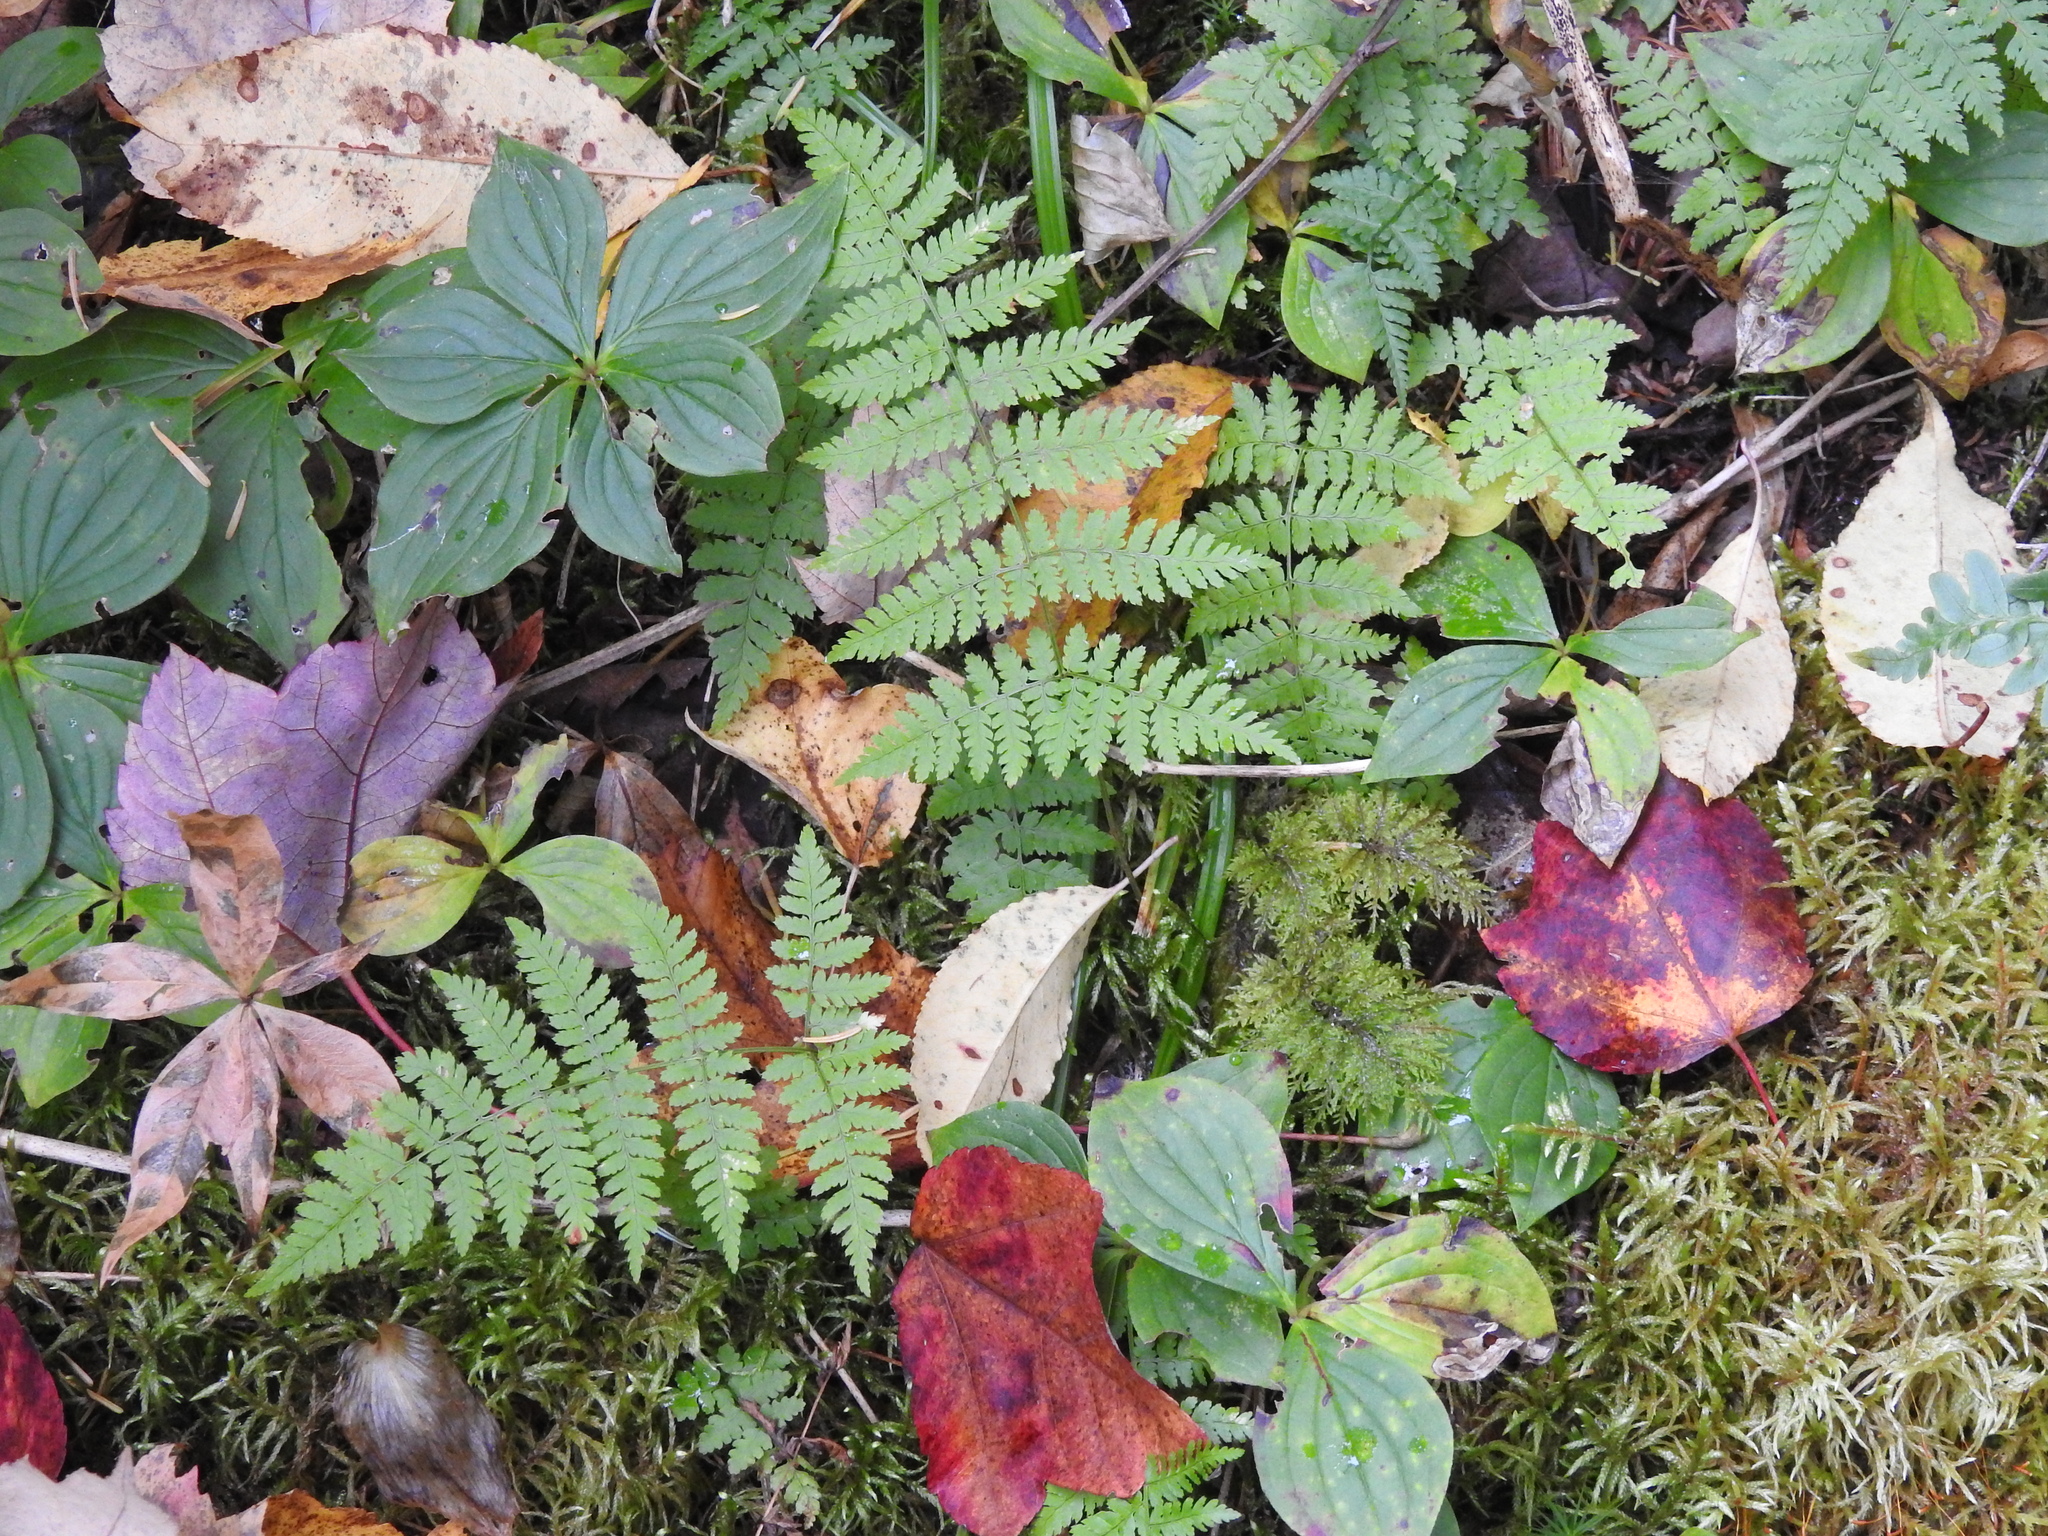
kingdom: Plantae
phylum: Tracheophyta
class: Polypodiopsida
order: Polypodiales
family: Dryopteridaceae
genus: Dryopteris
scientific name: Dryopteris intermedia
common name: Evergreen wood fern
